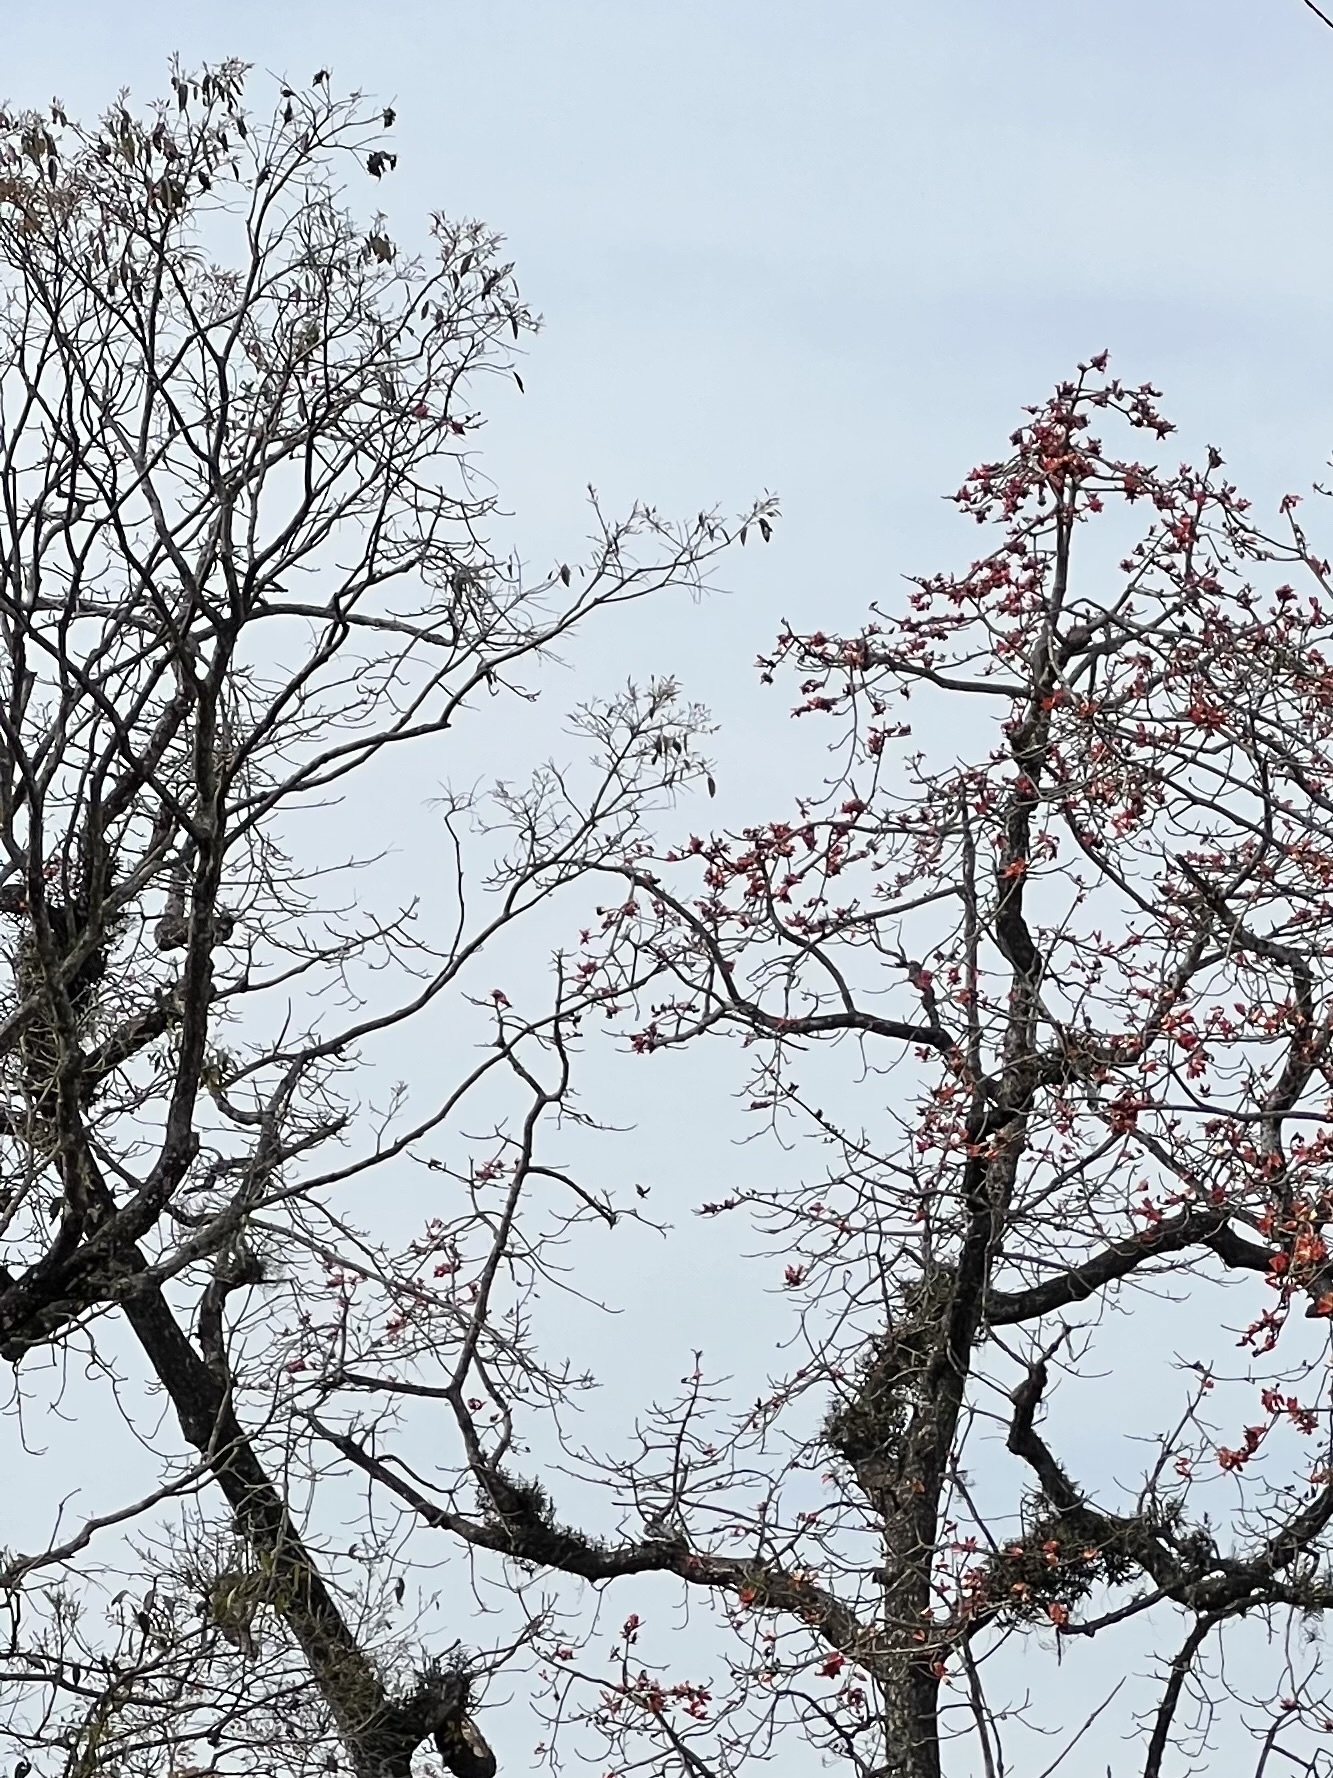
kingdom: Plantae
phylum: Tracheophyta
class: Magnoliopsida
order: Malvales
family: Malvaceae
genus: Bombax
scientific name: Bombax ceiba
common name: Northern-cottonwood
